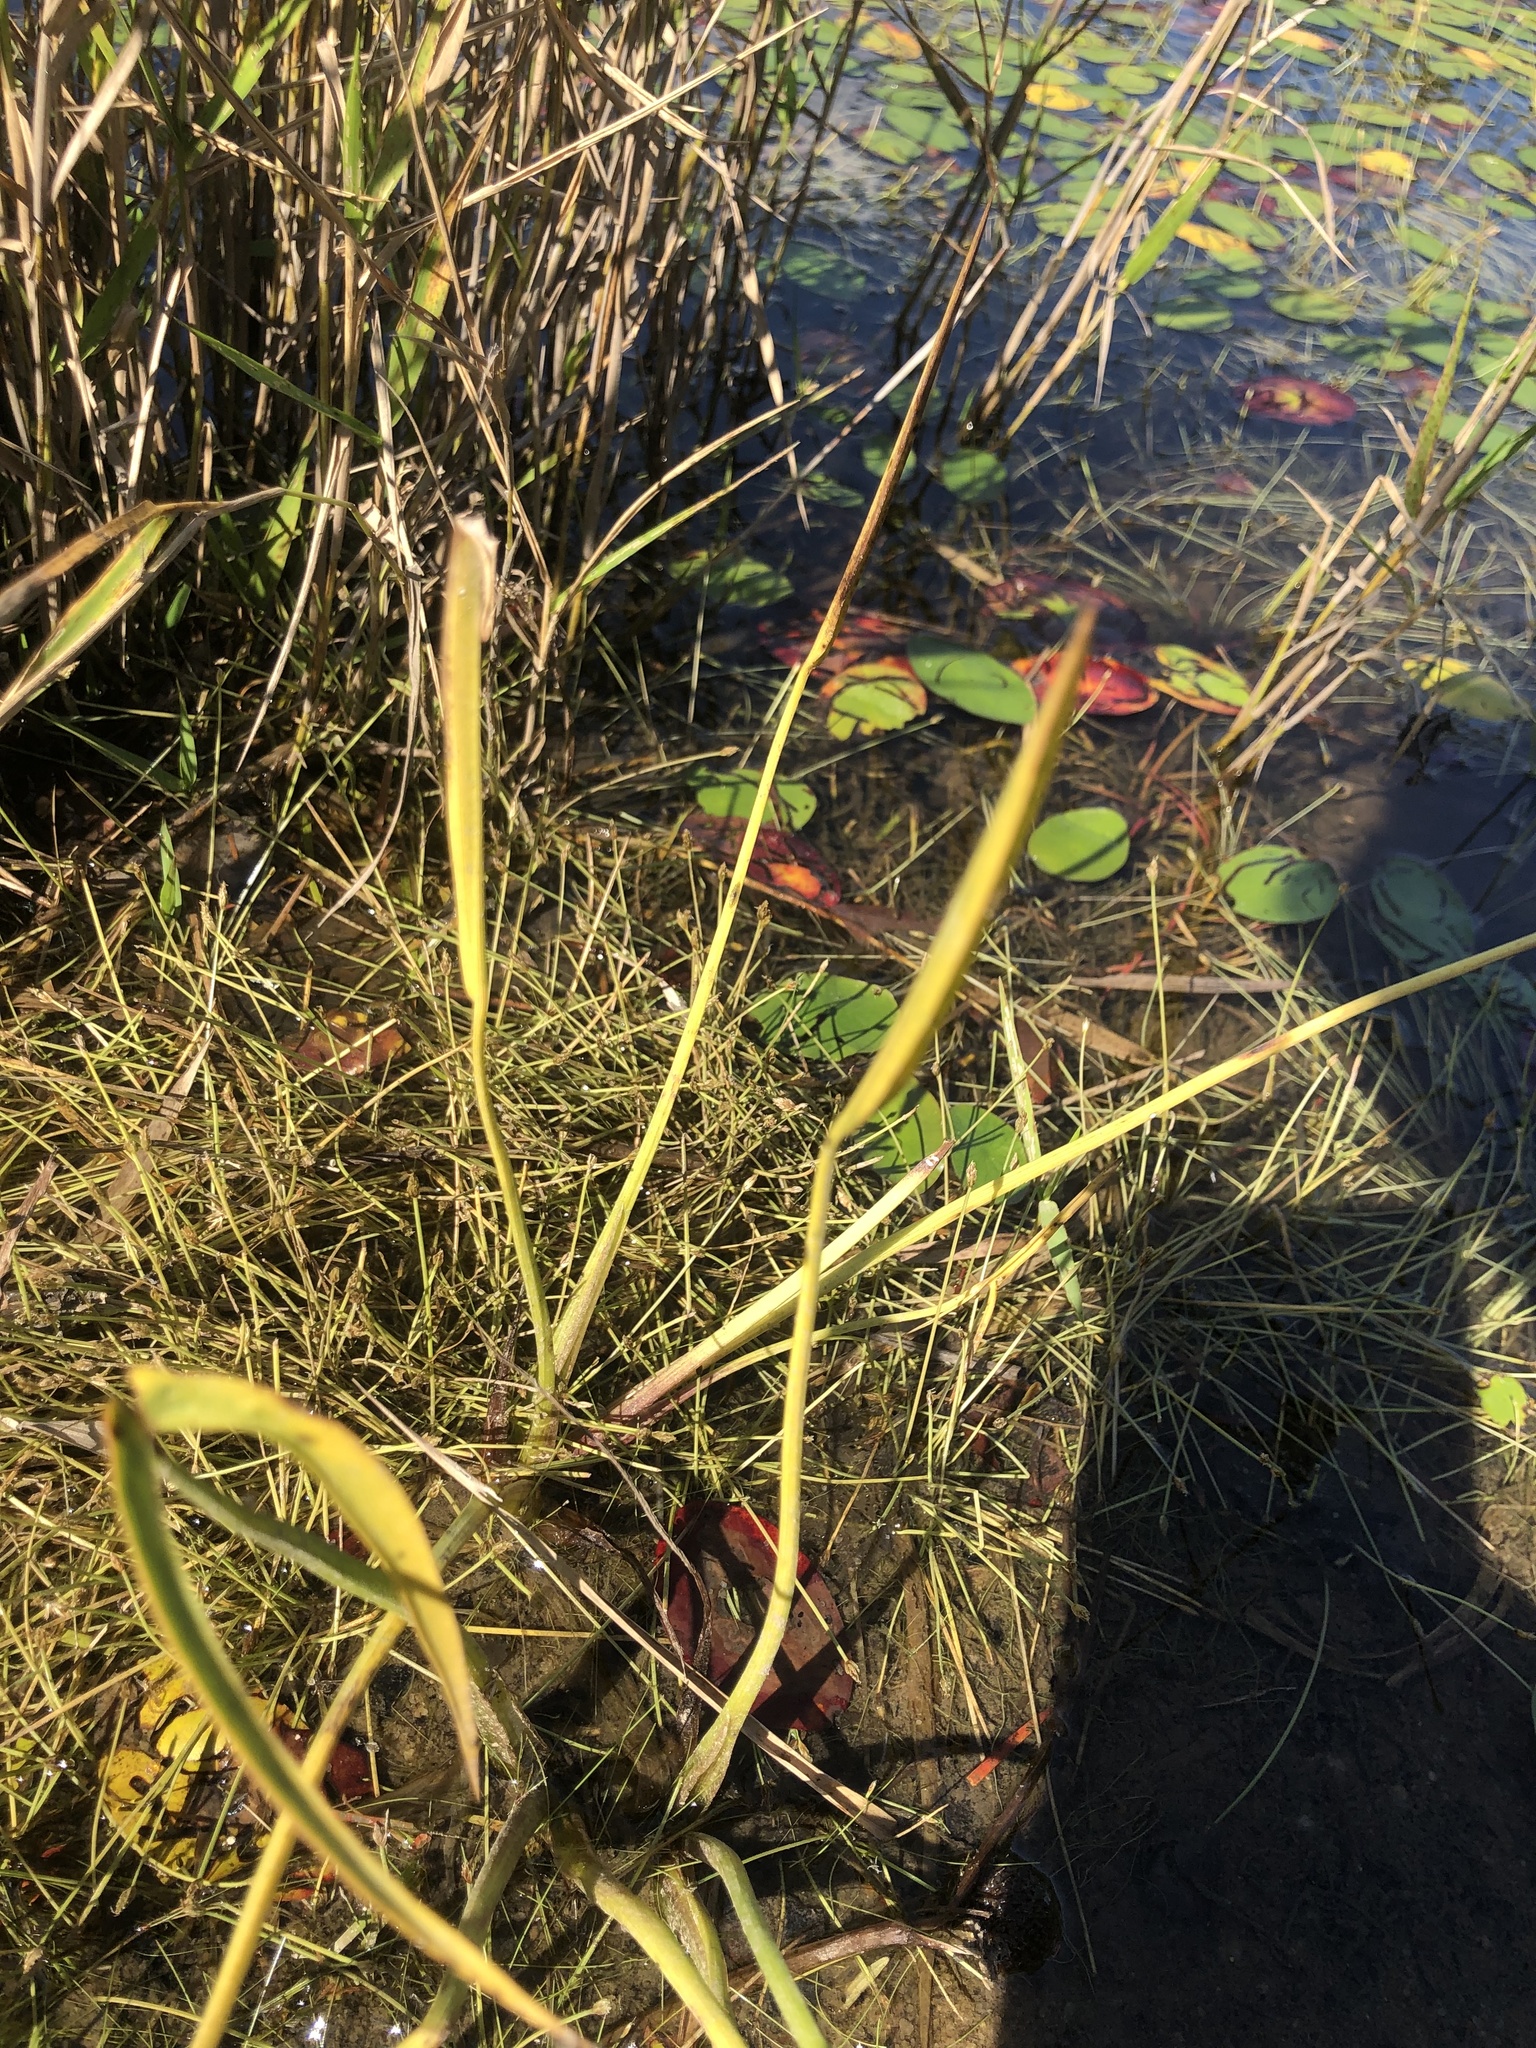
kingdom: Plantae
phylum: Tracheophyta
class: Liliopsida
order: Alismatales
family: Alismataceae
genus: Sagittaria
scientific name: Sagittaria engelmanniana
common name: Acid-water arrowhead
